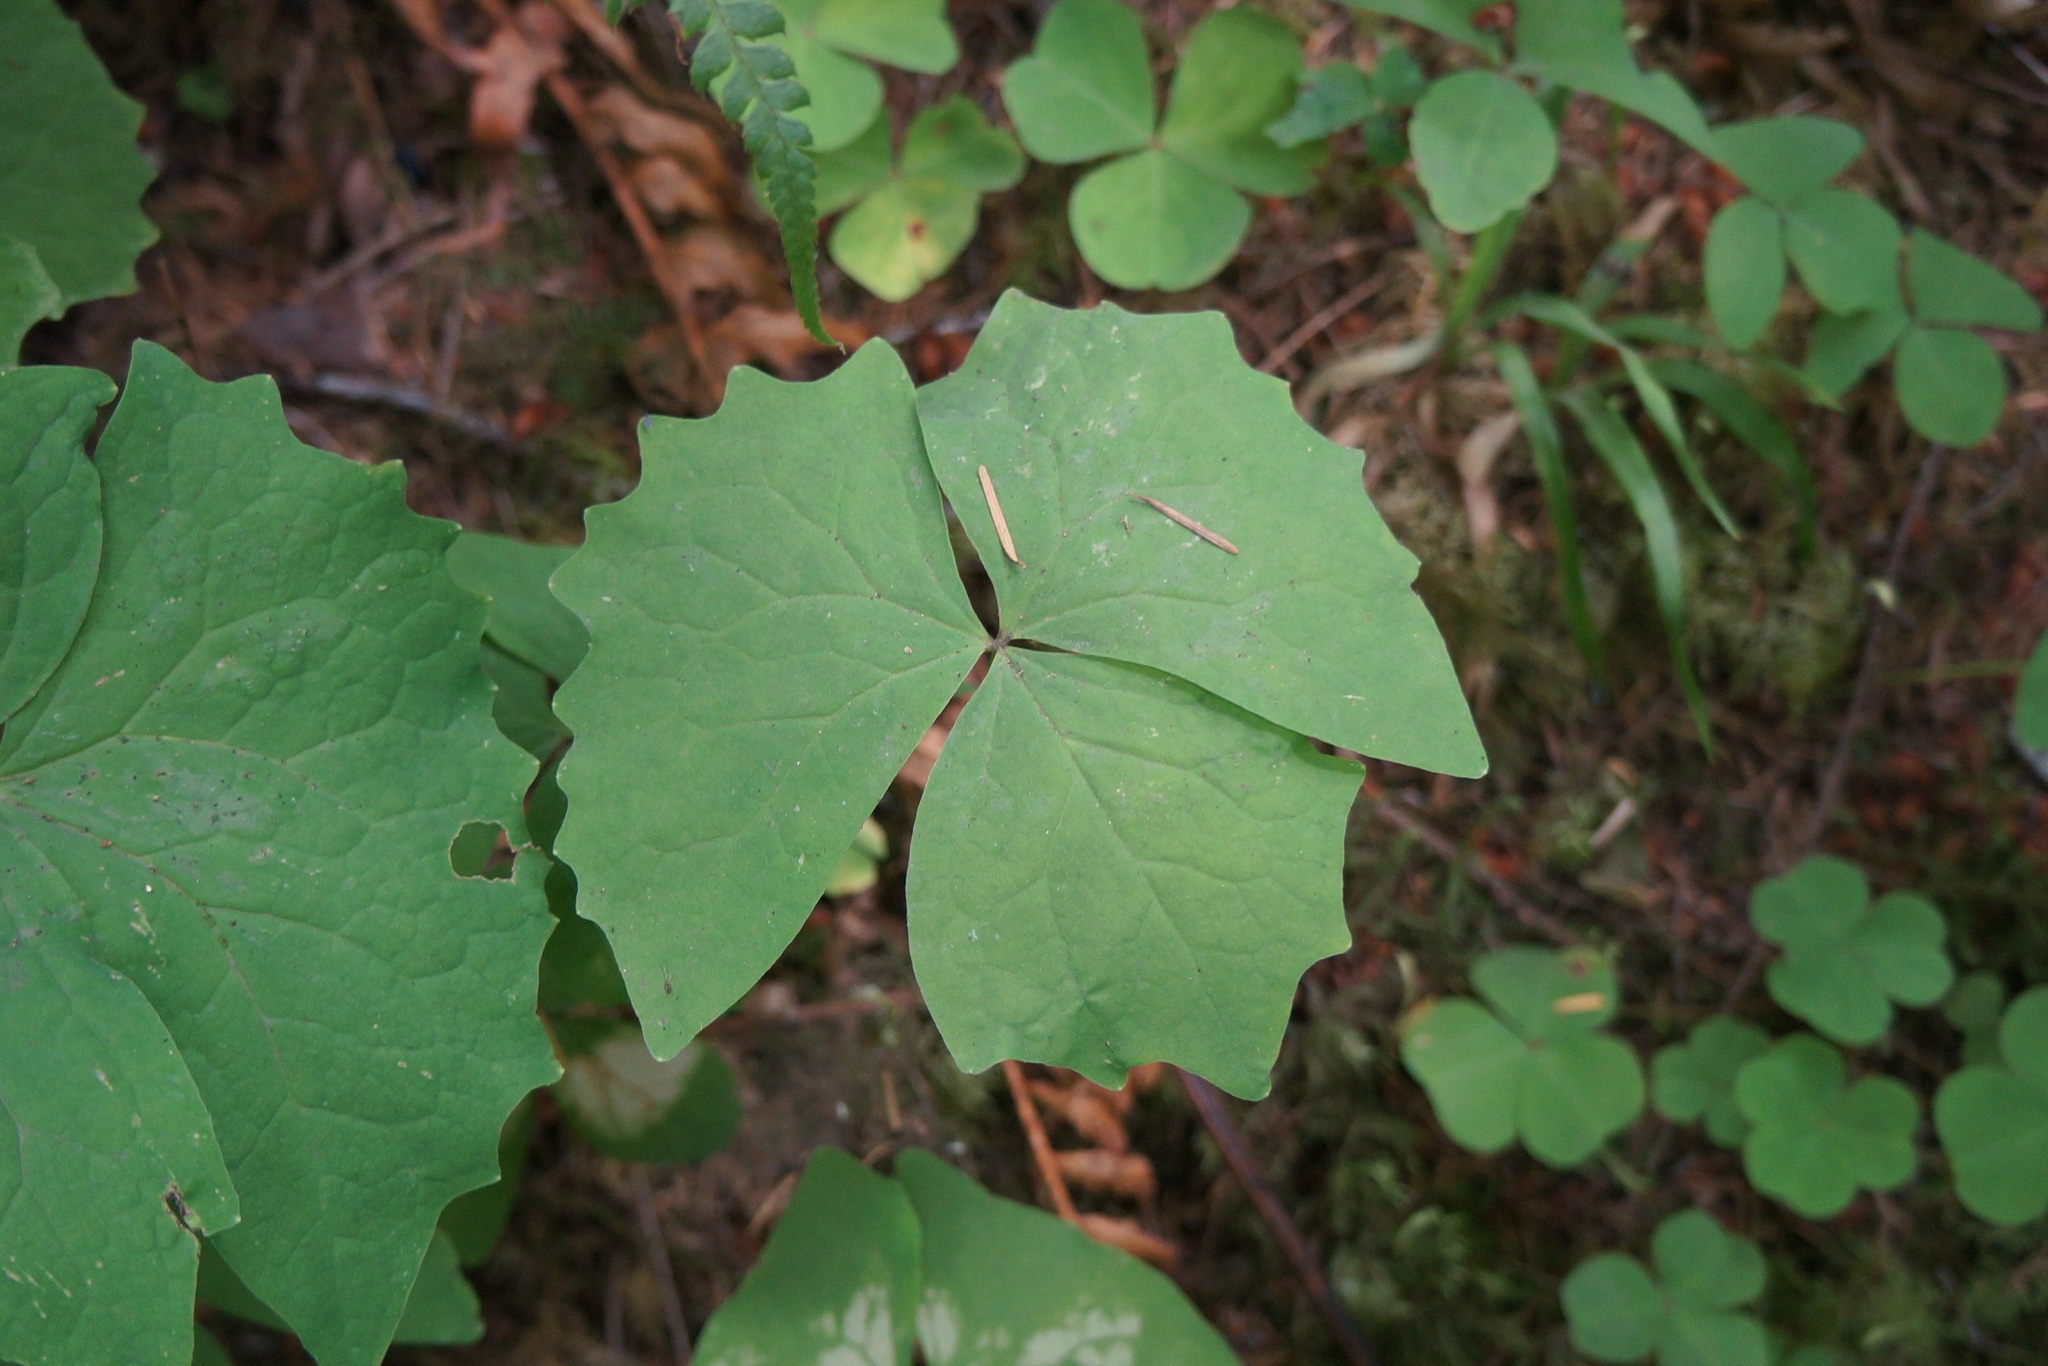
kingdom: Plantae
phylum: Tracheophyta
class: Magnoliopsida
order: Ranunculales
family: Berberidaceae
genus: Achlys
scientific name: Achlys triphylla
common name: Vanilla-leaf
